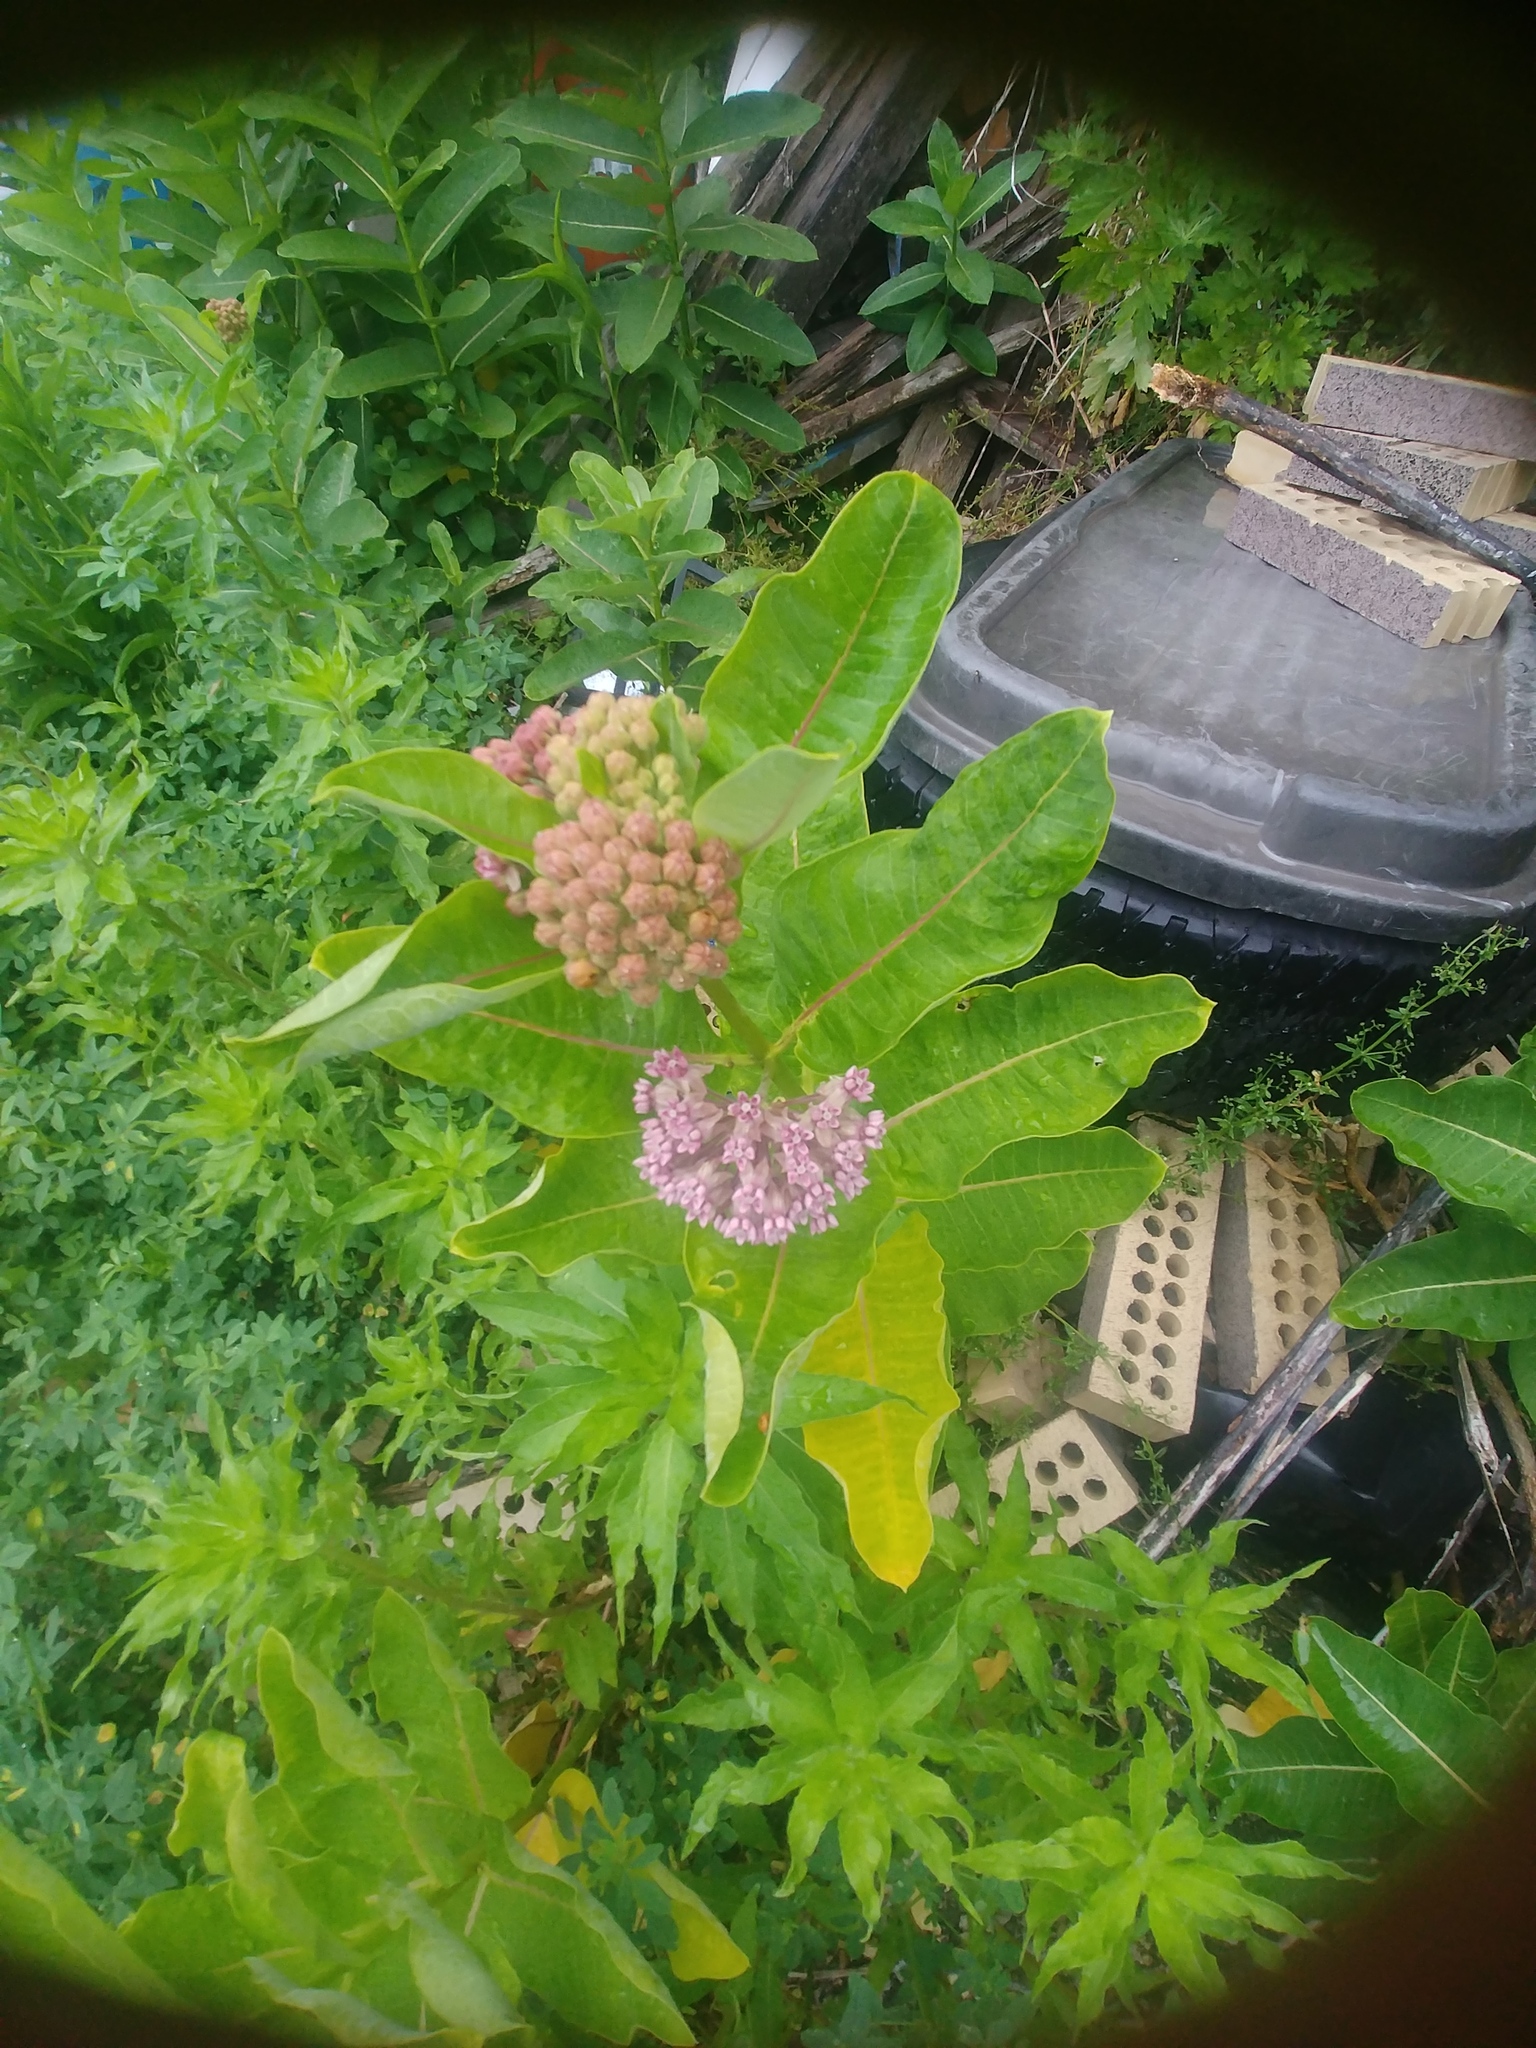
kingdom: Plantae
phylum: Tracheophyta
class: Magnoliopsida
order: Gentianales
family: Apocynaceae
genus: Asclepias
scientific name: Asclepias syriaca
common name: Common milkweed
